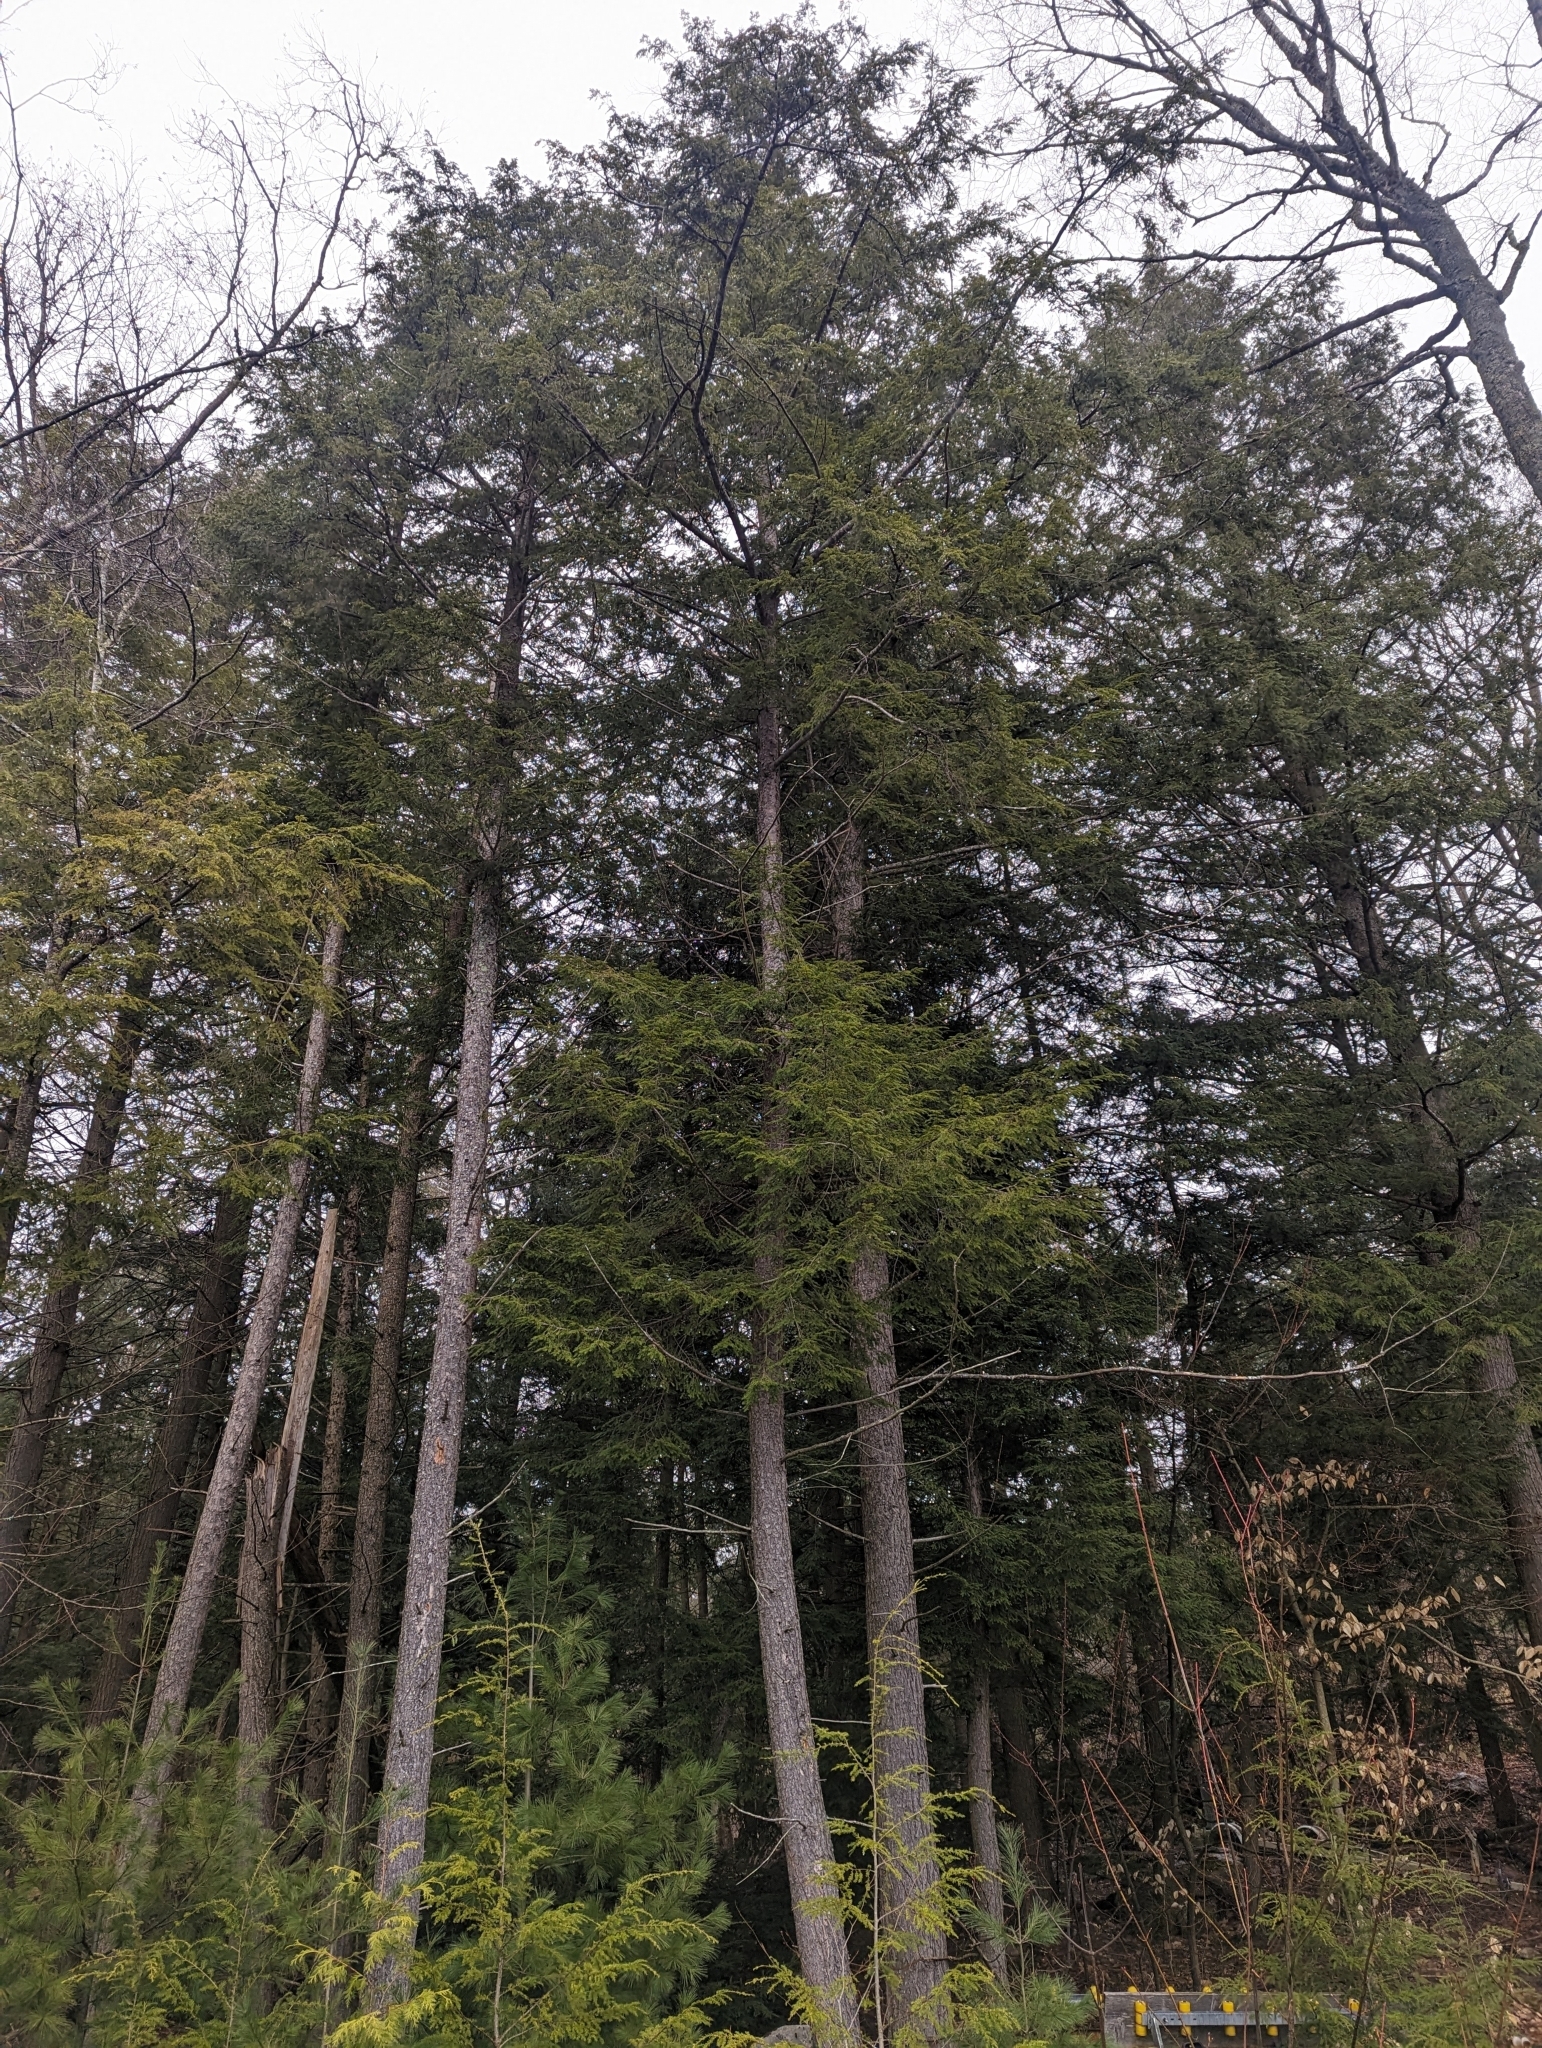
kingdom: Plantae
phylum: Tracheophyta
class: Pinopsida
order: Pinales
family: Pinaceae
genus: Tsuga
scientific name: Tsuga canadensis
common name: Eastern hemlock
